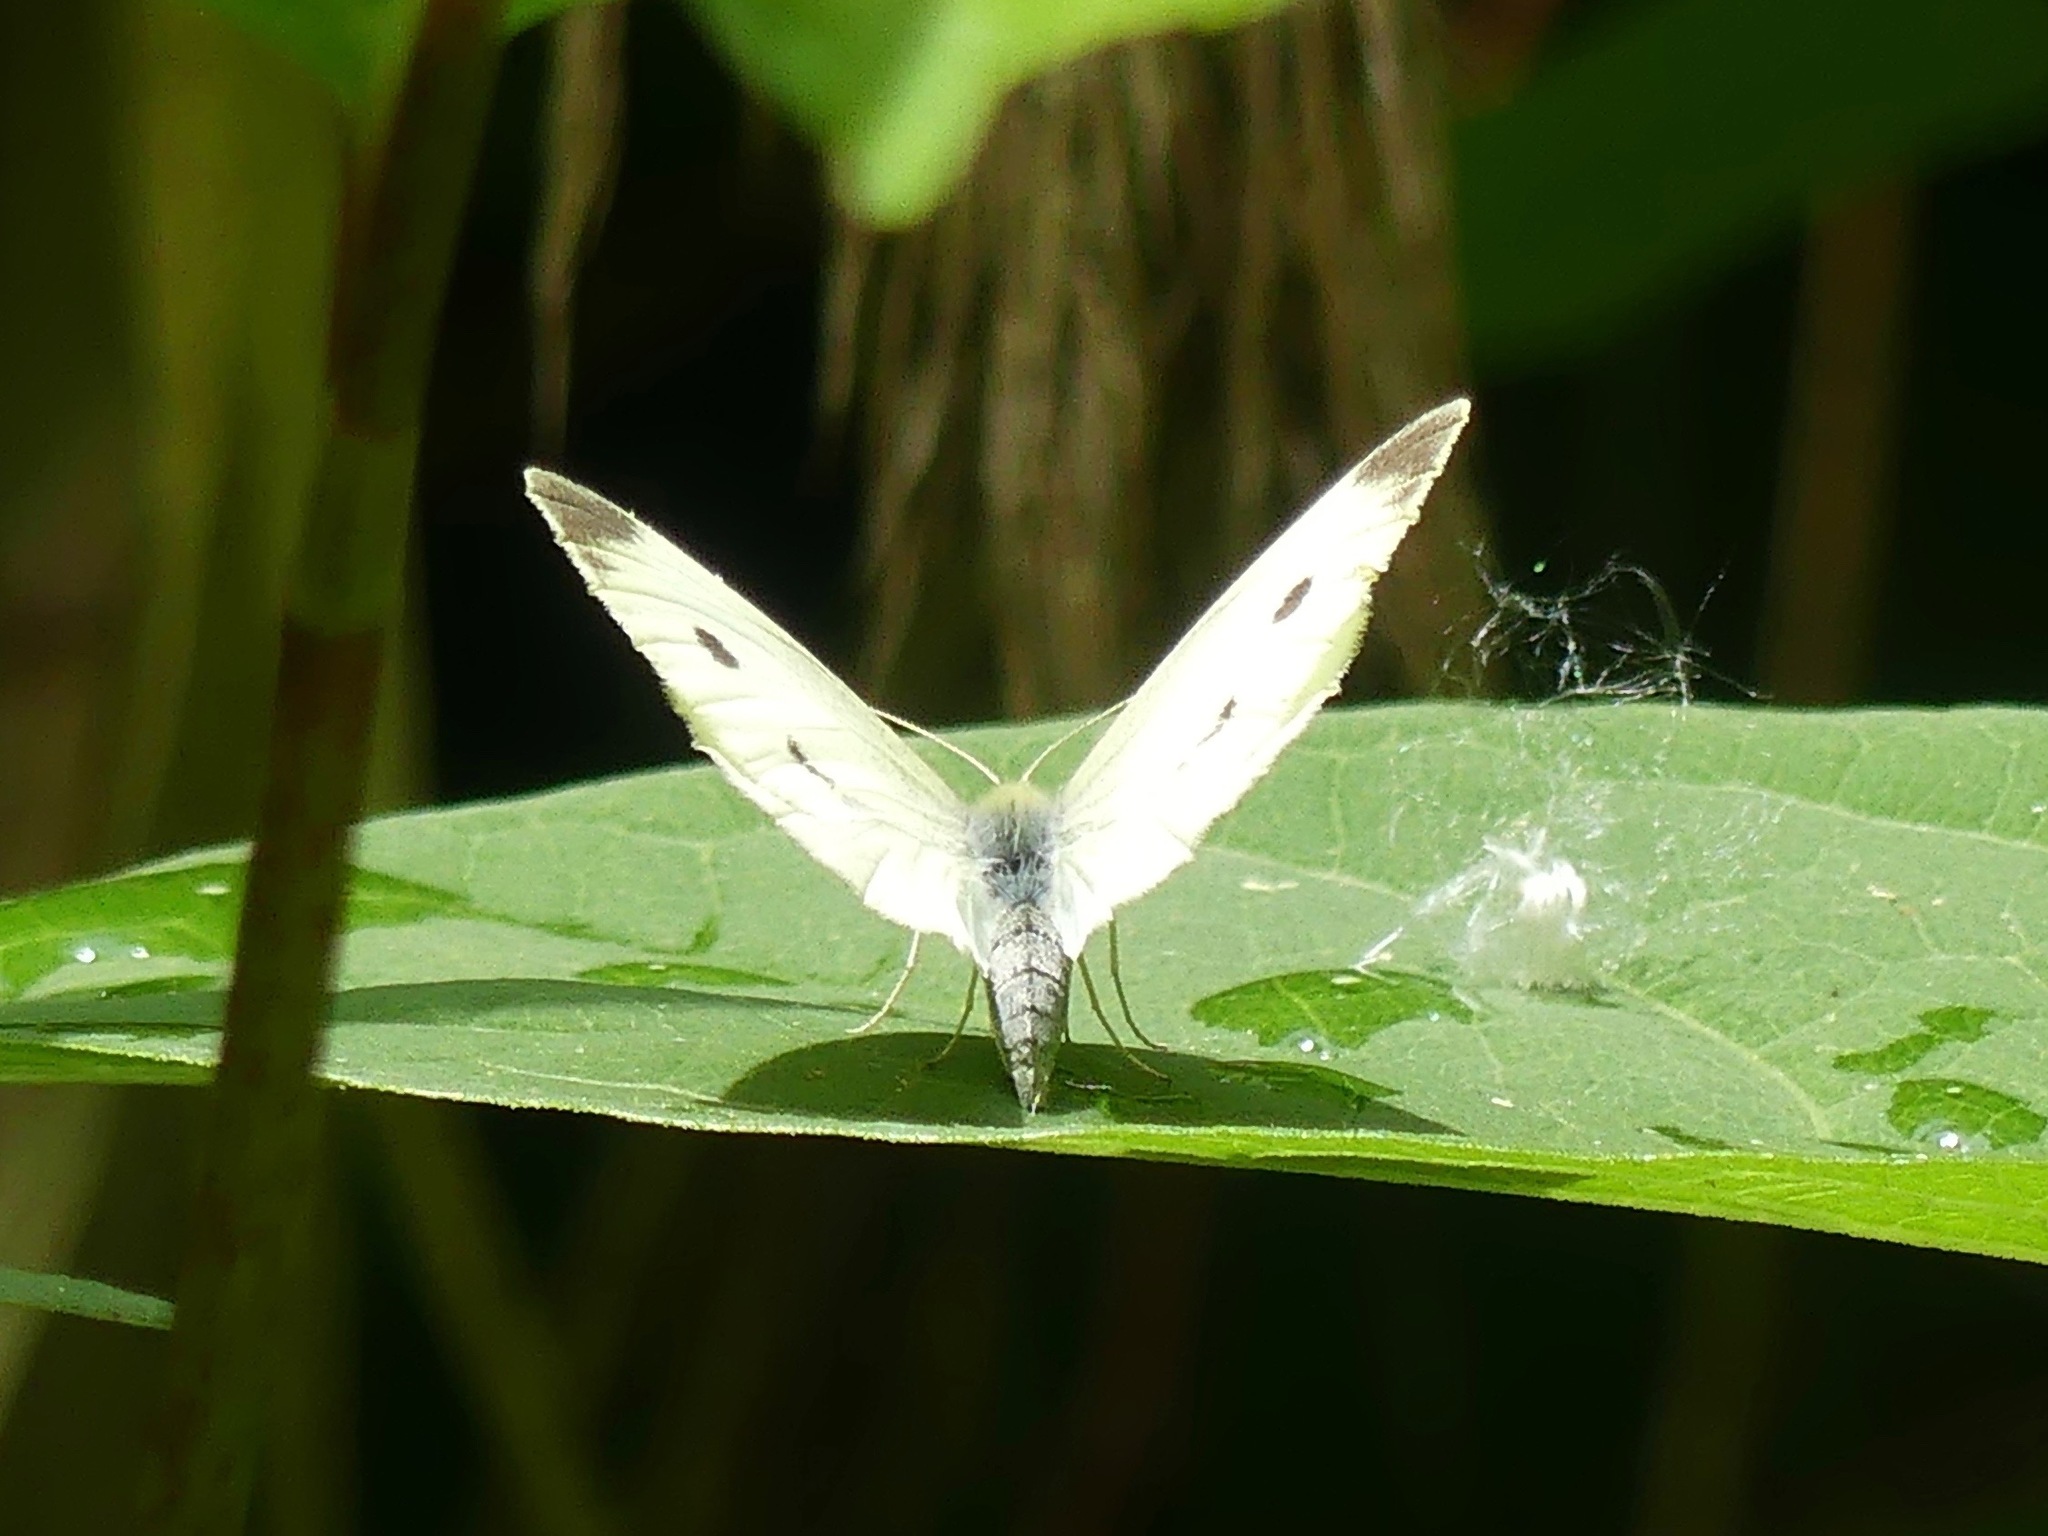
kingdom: Animalia
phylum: Arthropoda
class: Insecta
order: Lepidoptera
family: Pieridae
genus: Pieris
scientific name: Pieris rapae
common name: Small white
